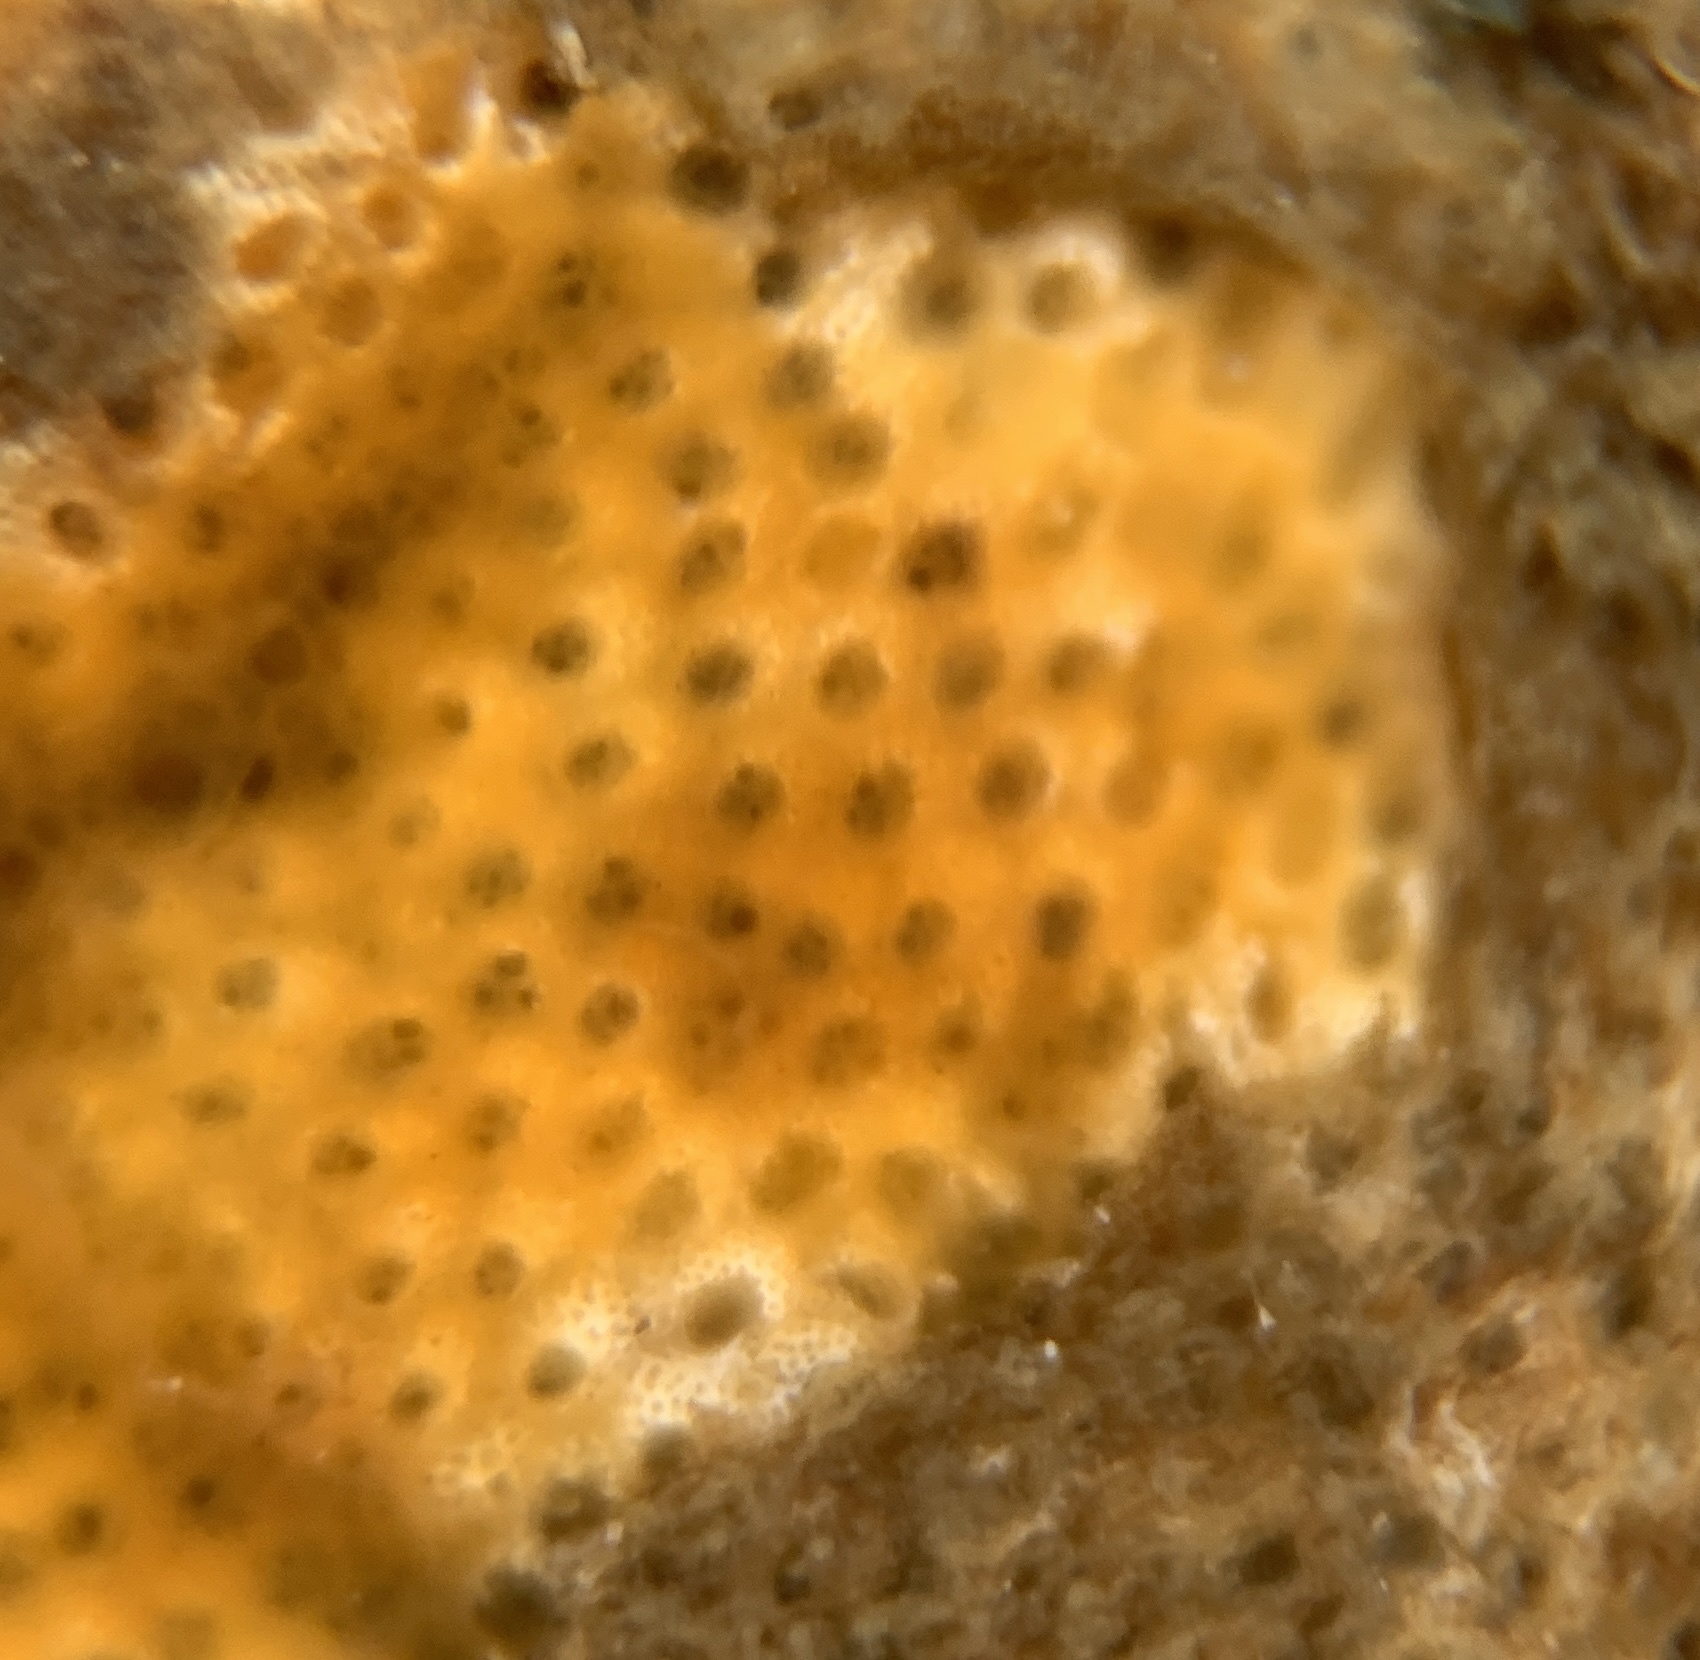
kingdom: Animalia
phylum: Bryozoa
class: Gymnolaemata
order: Cheilostomatida
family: Cryptosulidae
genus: Cryptosula
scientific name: Cryptosula pallasiana
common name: Red crust
